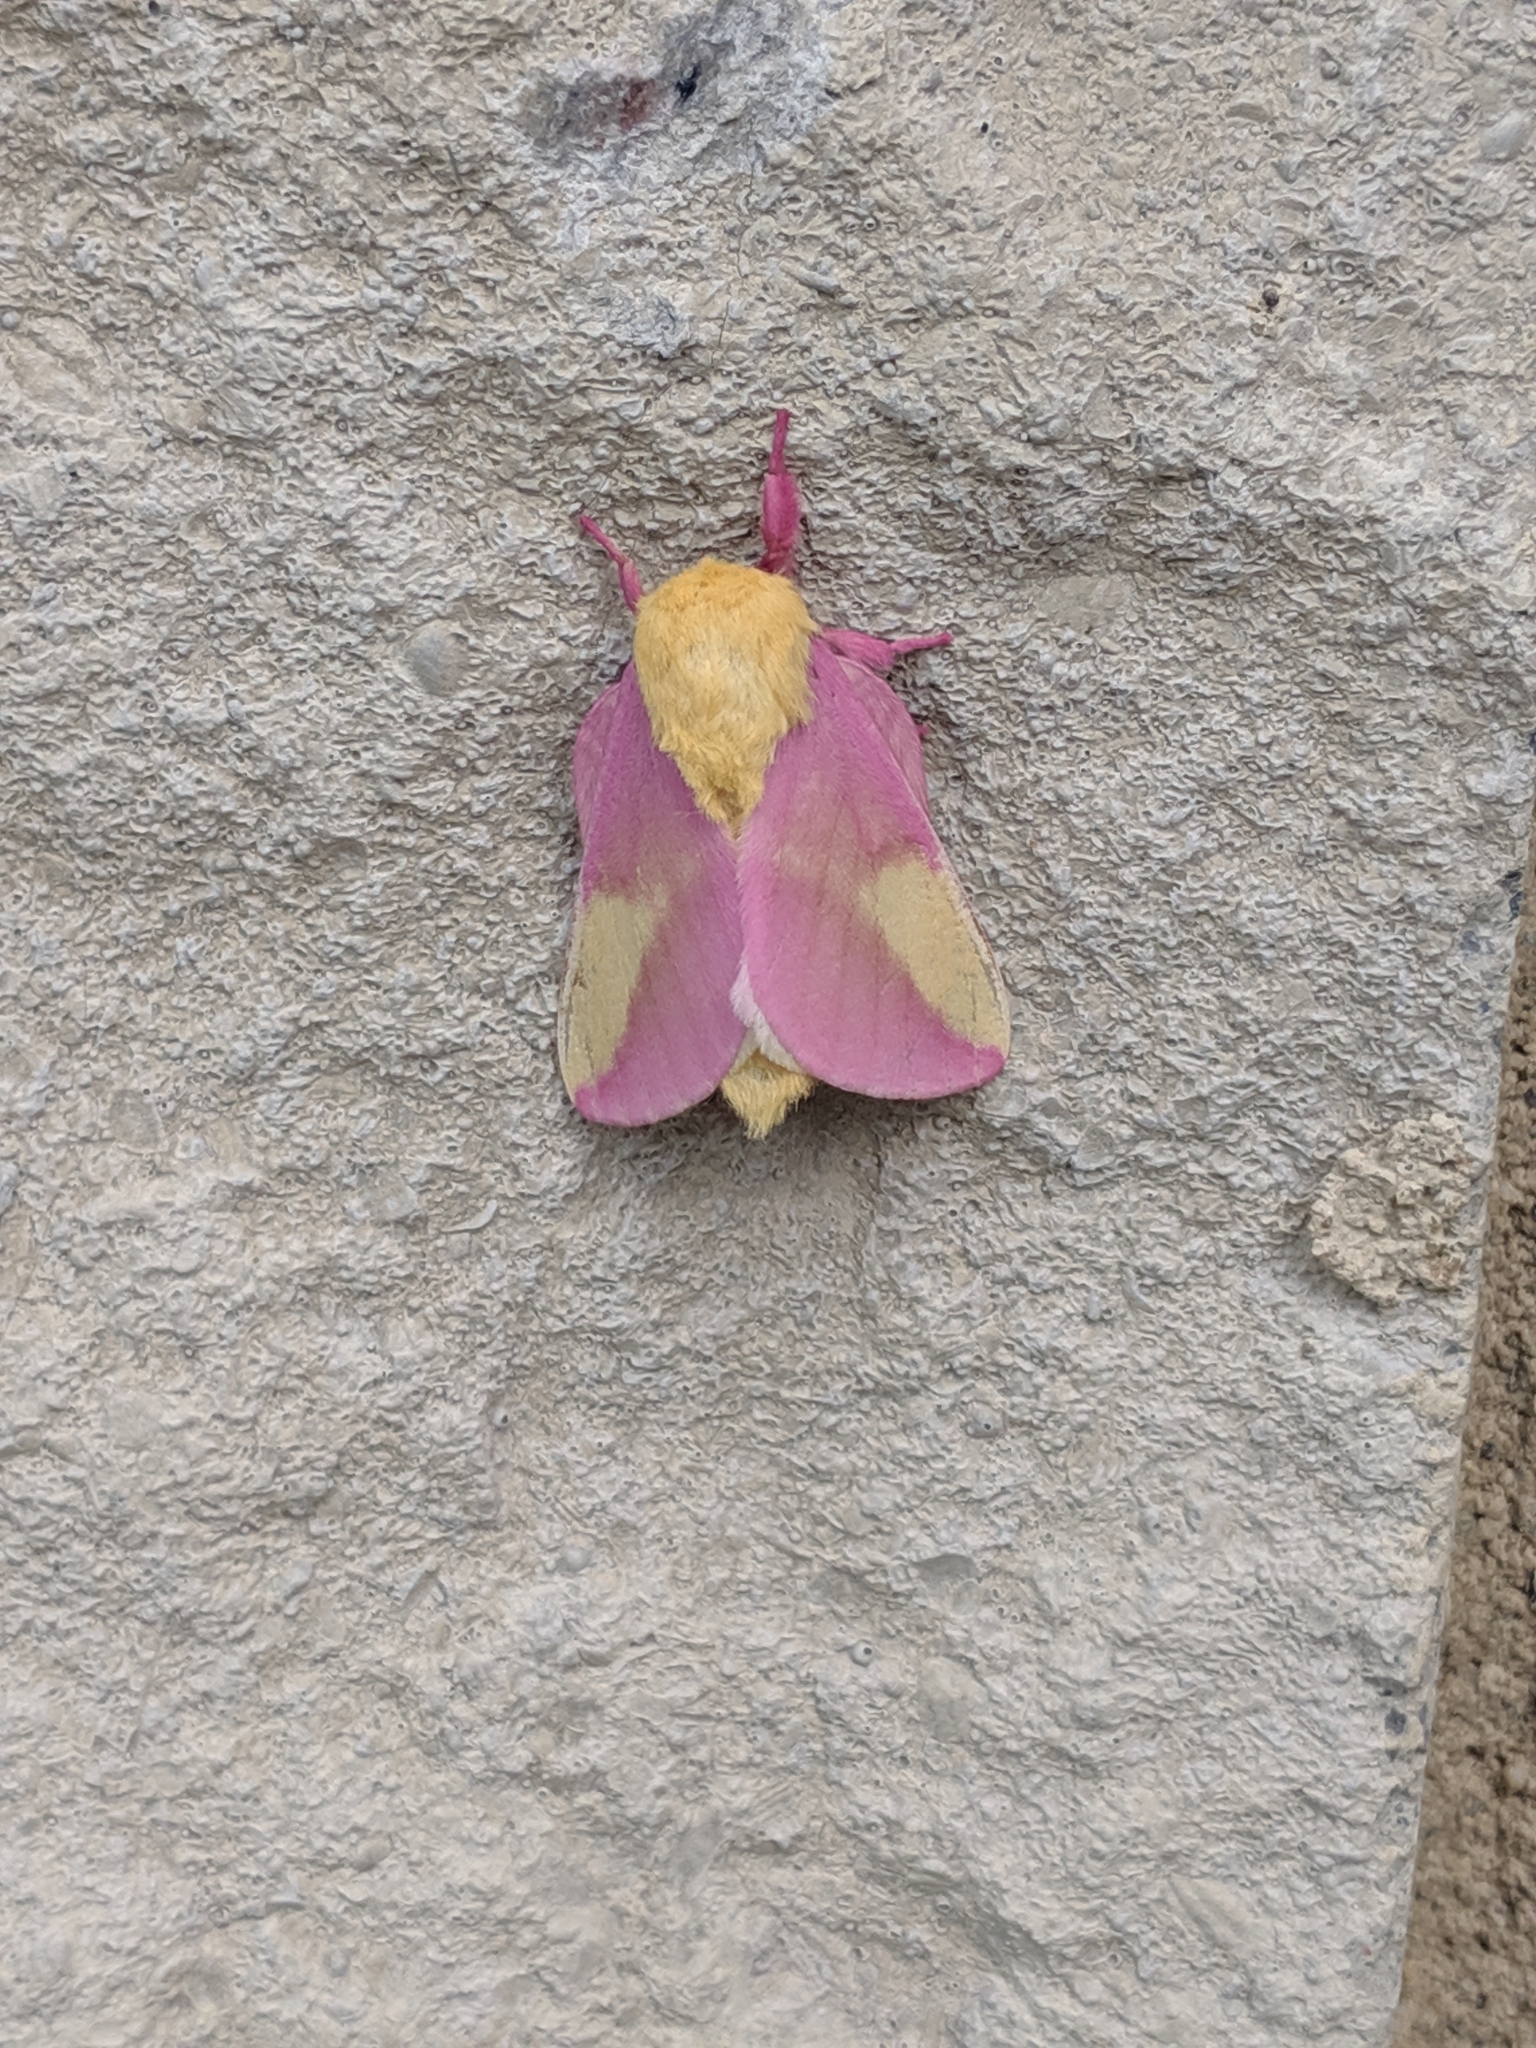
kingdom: Animalia
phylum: Arthropoda
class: Insecta
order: Lepidoptera
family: Saturniidae
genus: Dryocampa
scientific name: Dryocampa rubicunda
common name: Rosy maple moth
